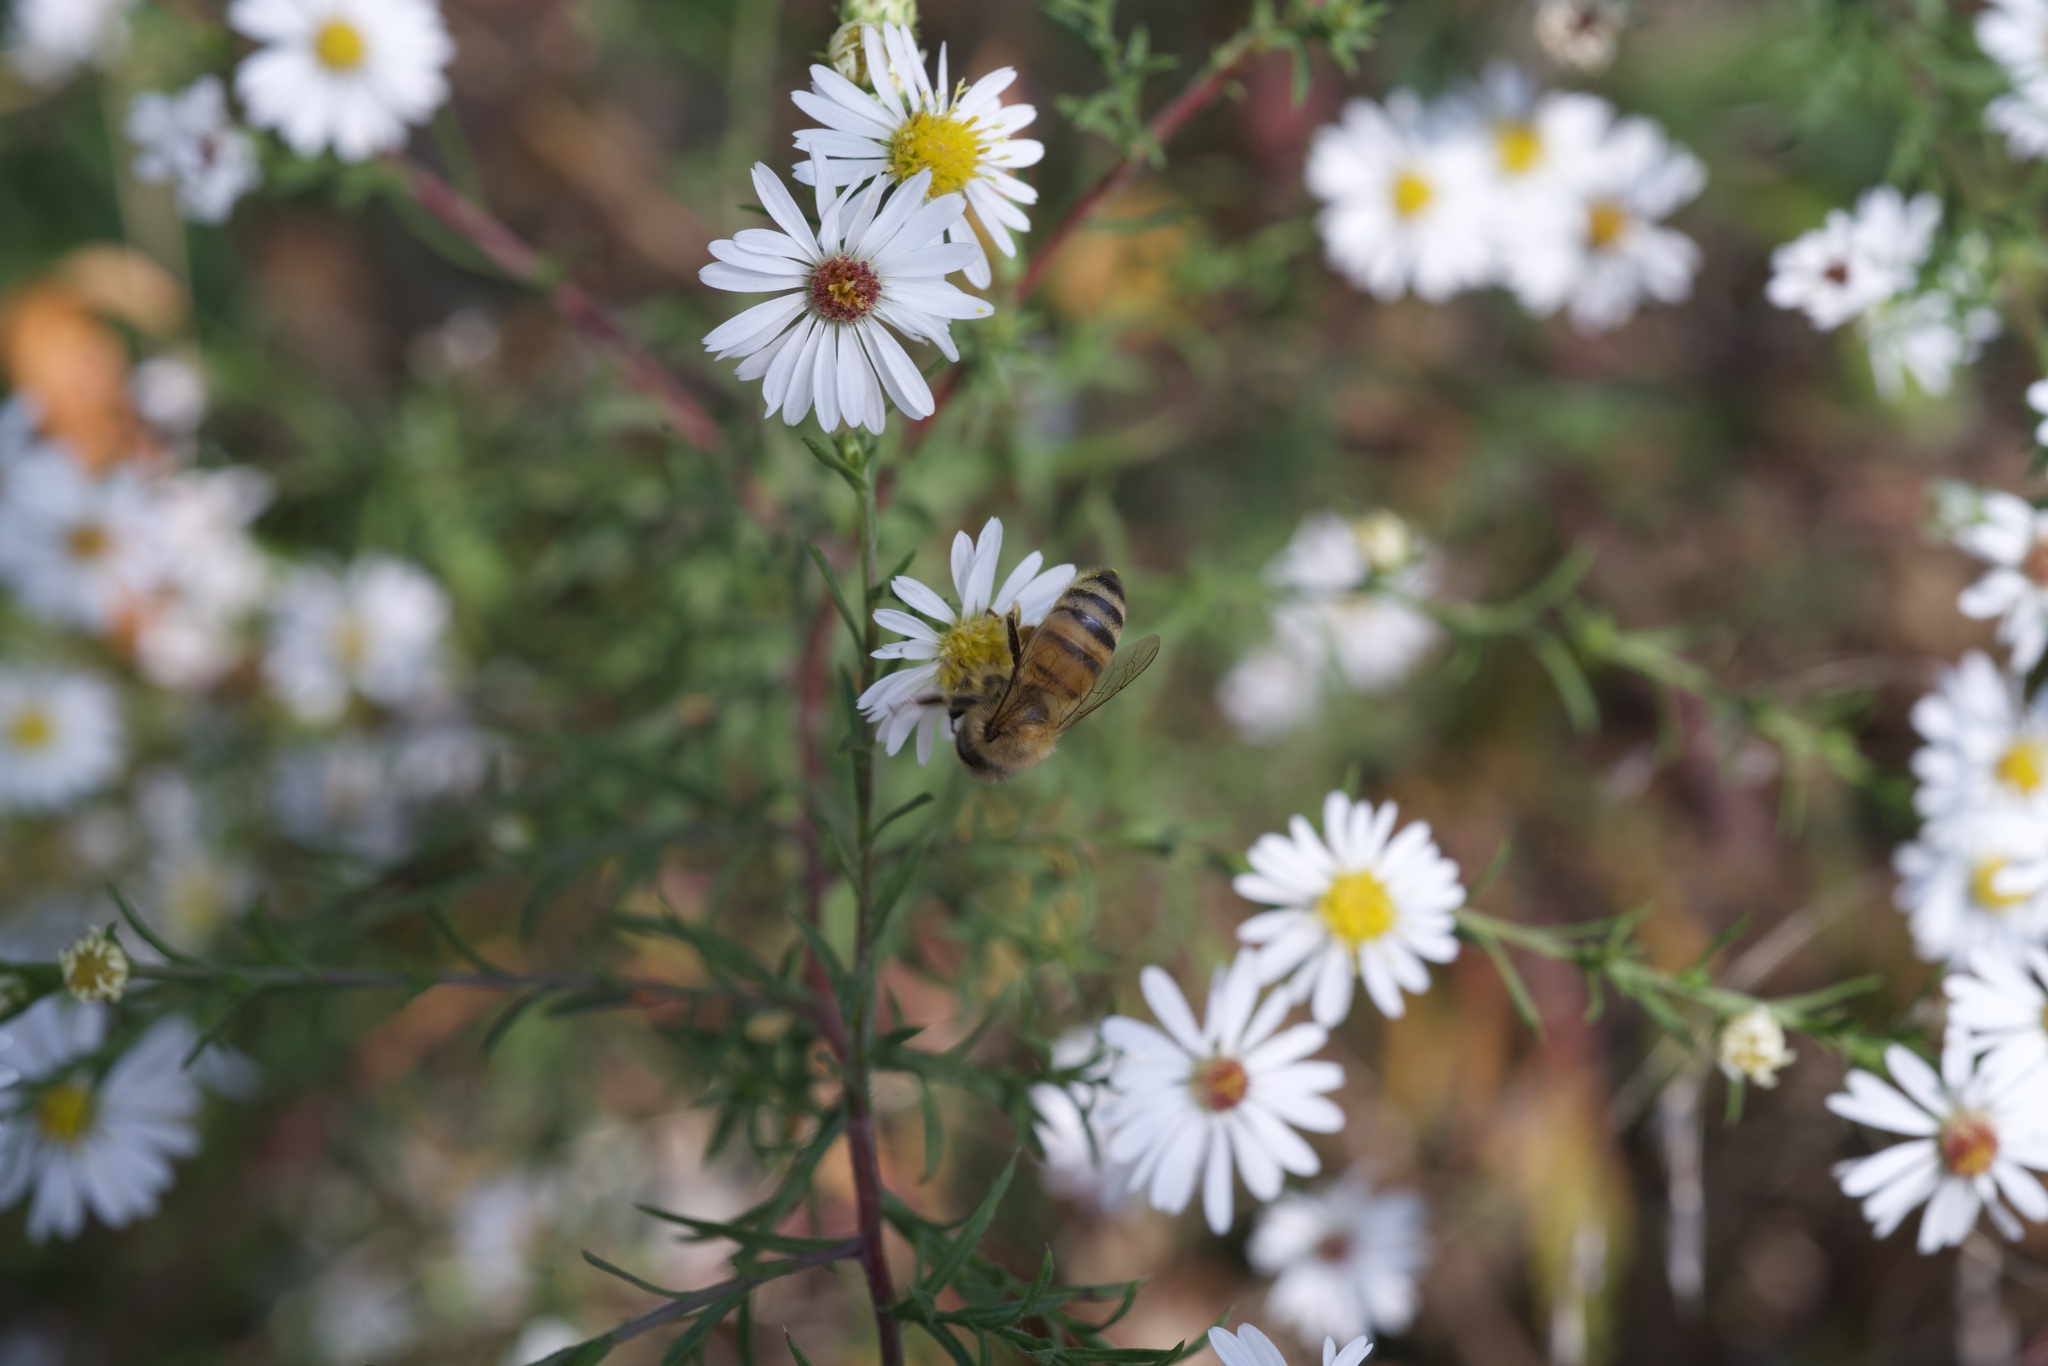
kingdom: Animalia
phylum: Arthropoda
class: Insecta
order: Hymenoptera
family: Apidae
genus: Apis
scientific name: Apis mellifera
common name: Honey bee
